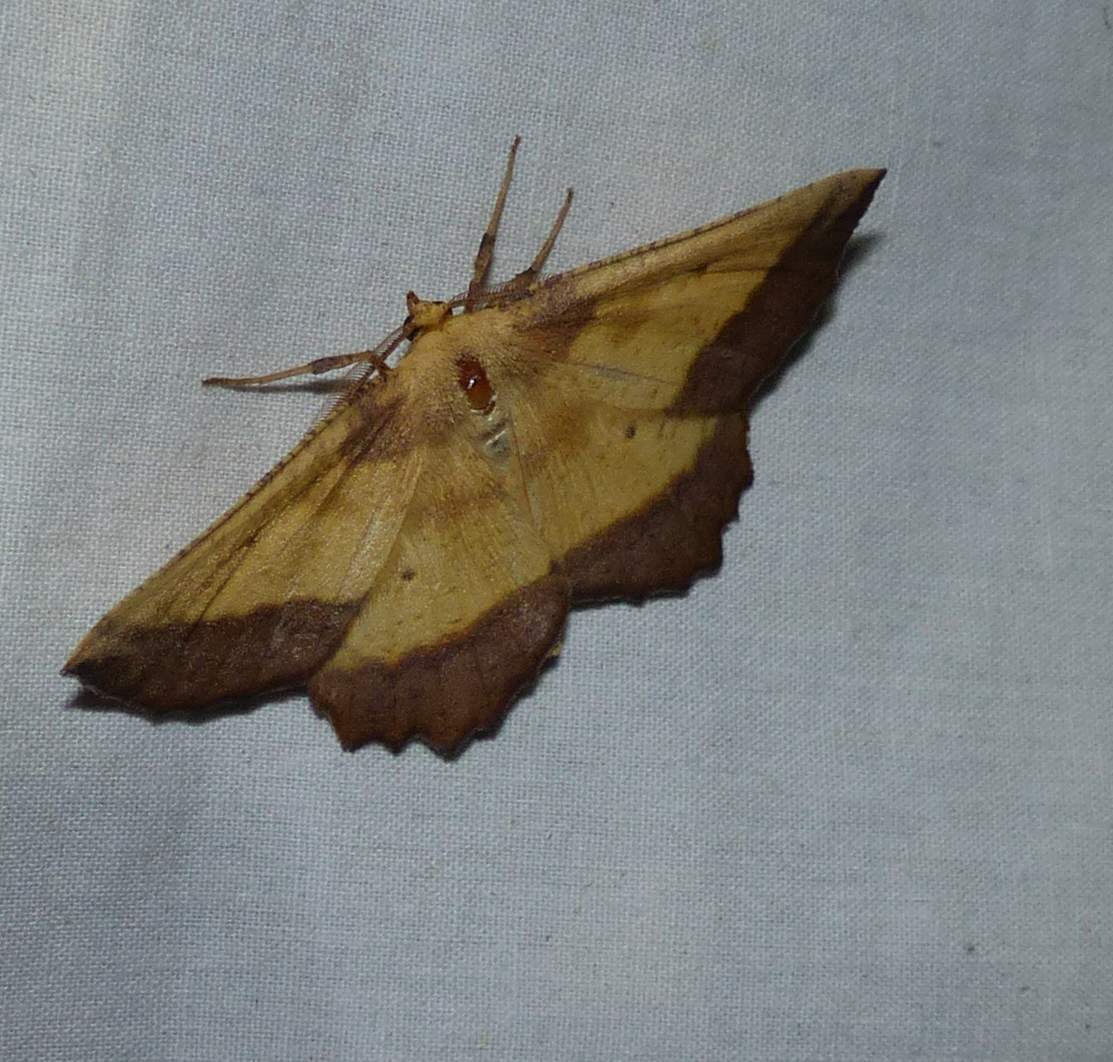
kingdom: Animalia
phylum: Arthropoda
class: Insecta
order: Lepidoptera
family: Geometridae
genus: Euchlaena
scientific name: Euchlaena serrata
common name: Saw wing
